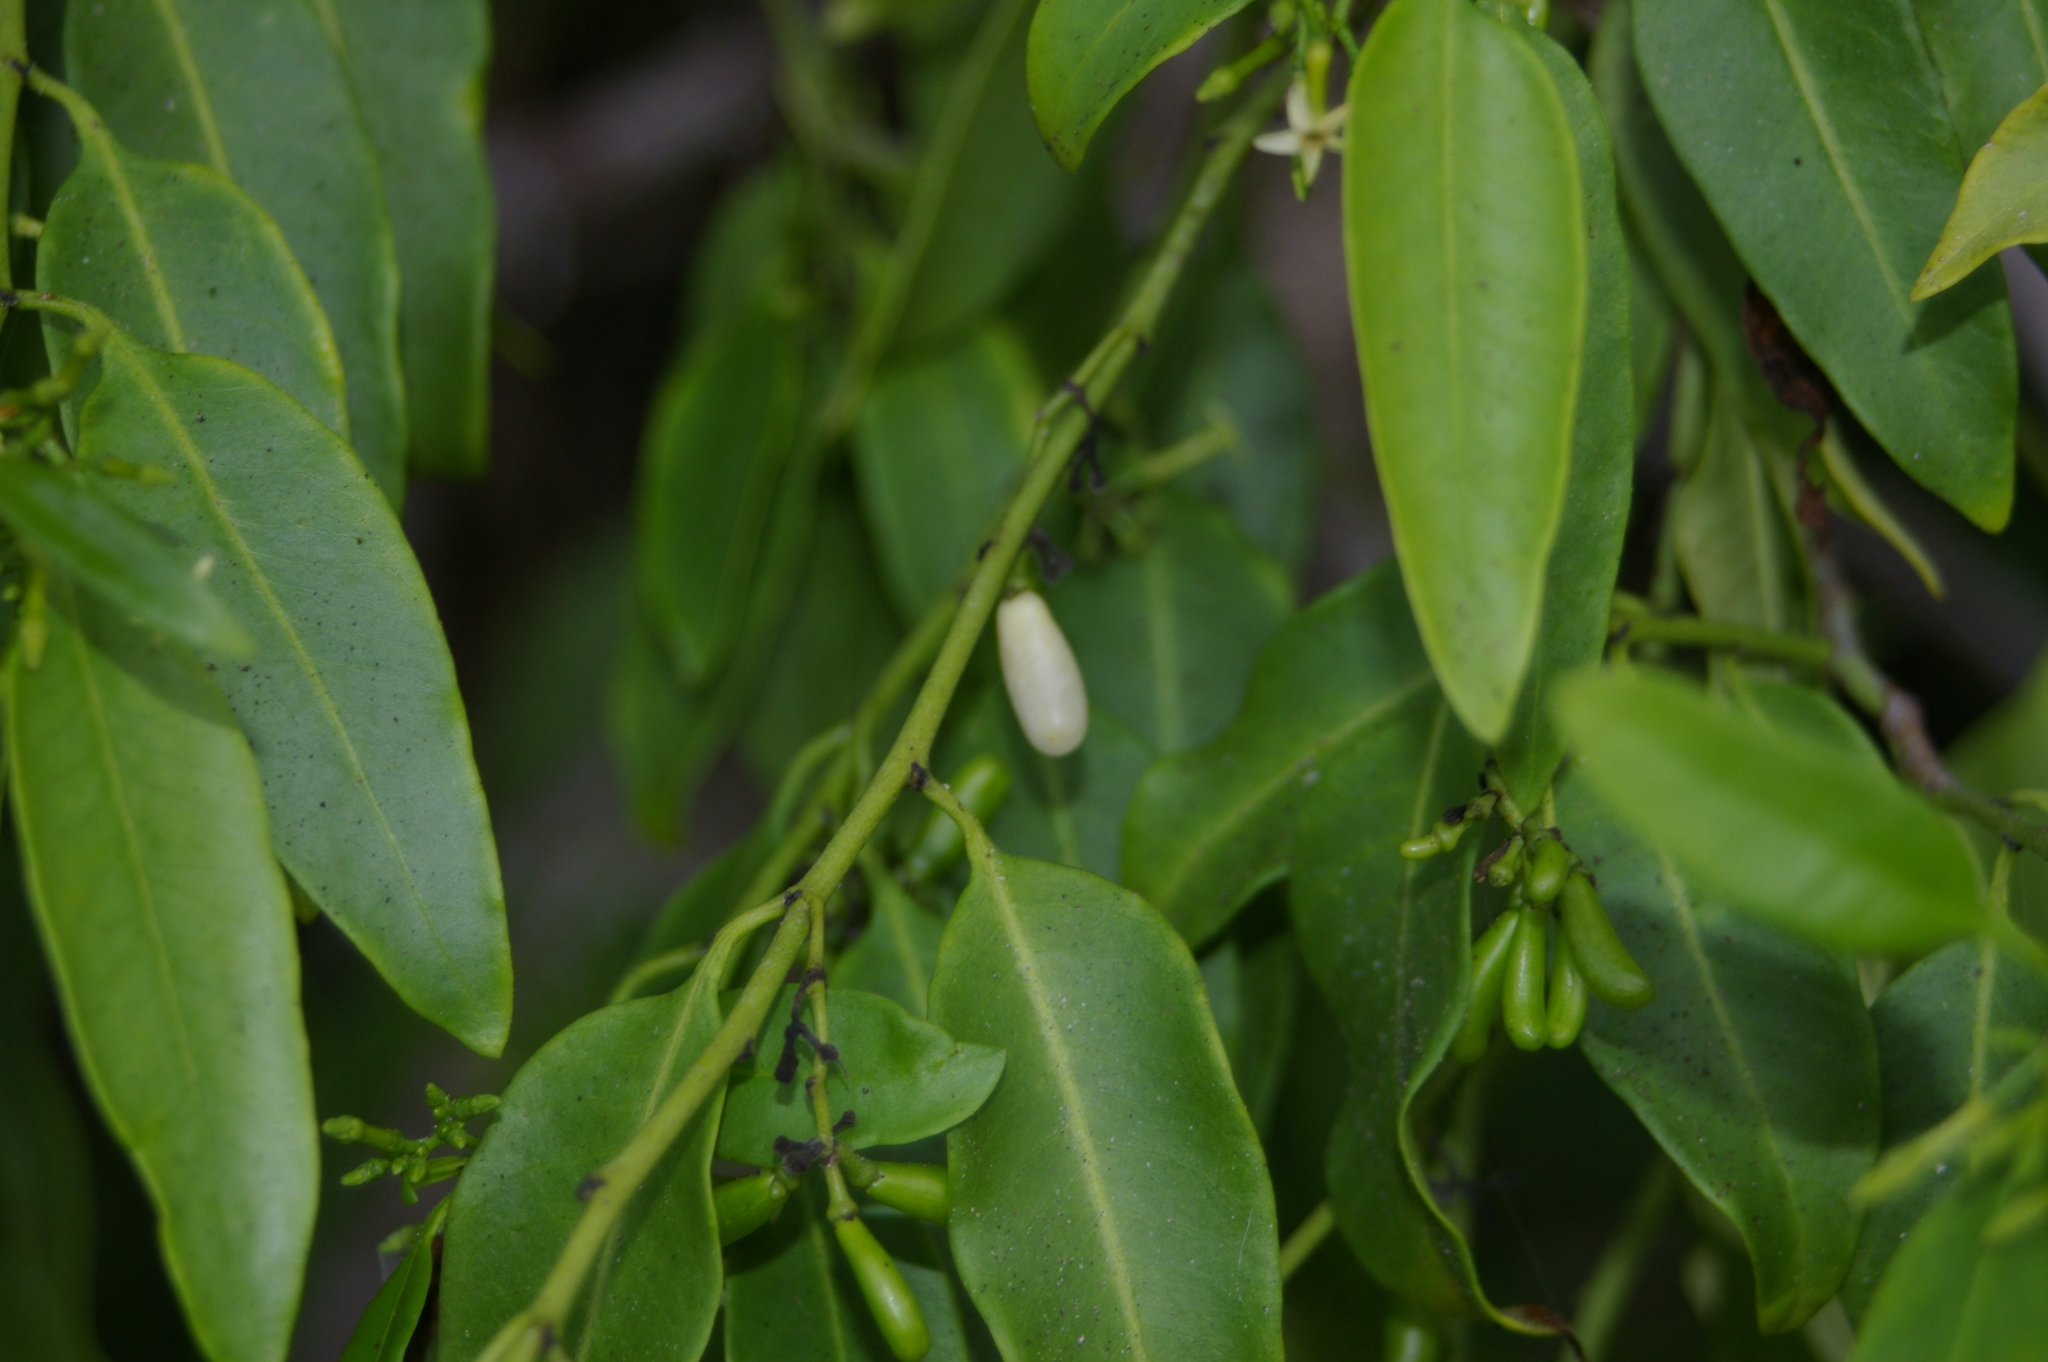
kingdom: Plantae
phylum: Tracheophyta
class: Magnoliopsida
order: Gentianales
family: Apocynaceae
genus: Vallesia
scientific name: Vallesia glabra
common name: Pearlberry
